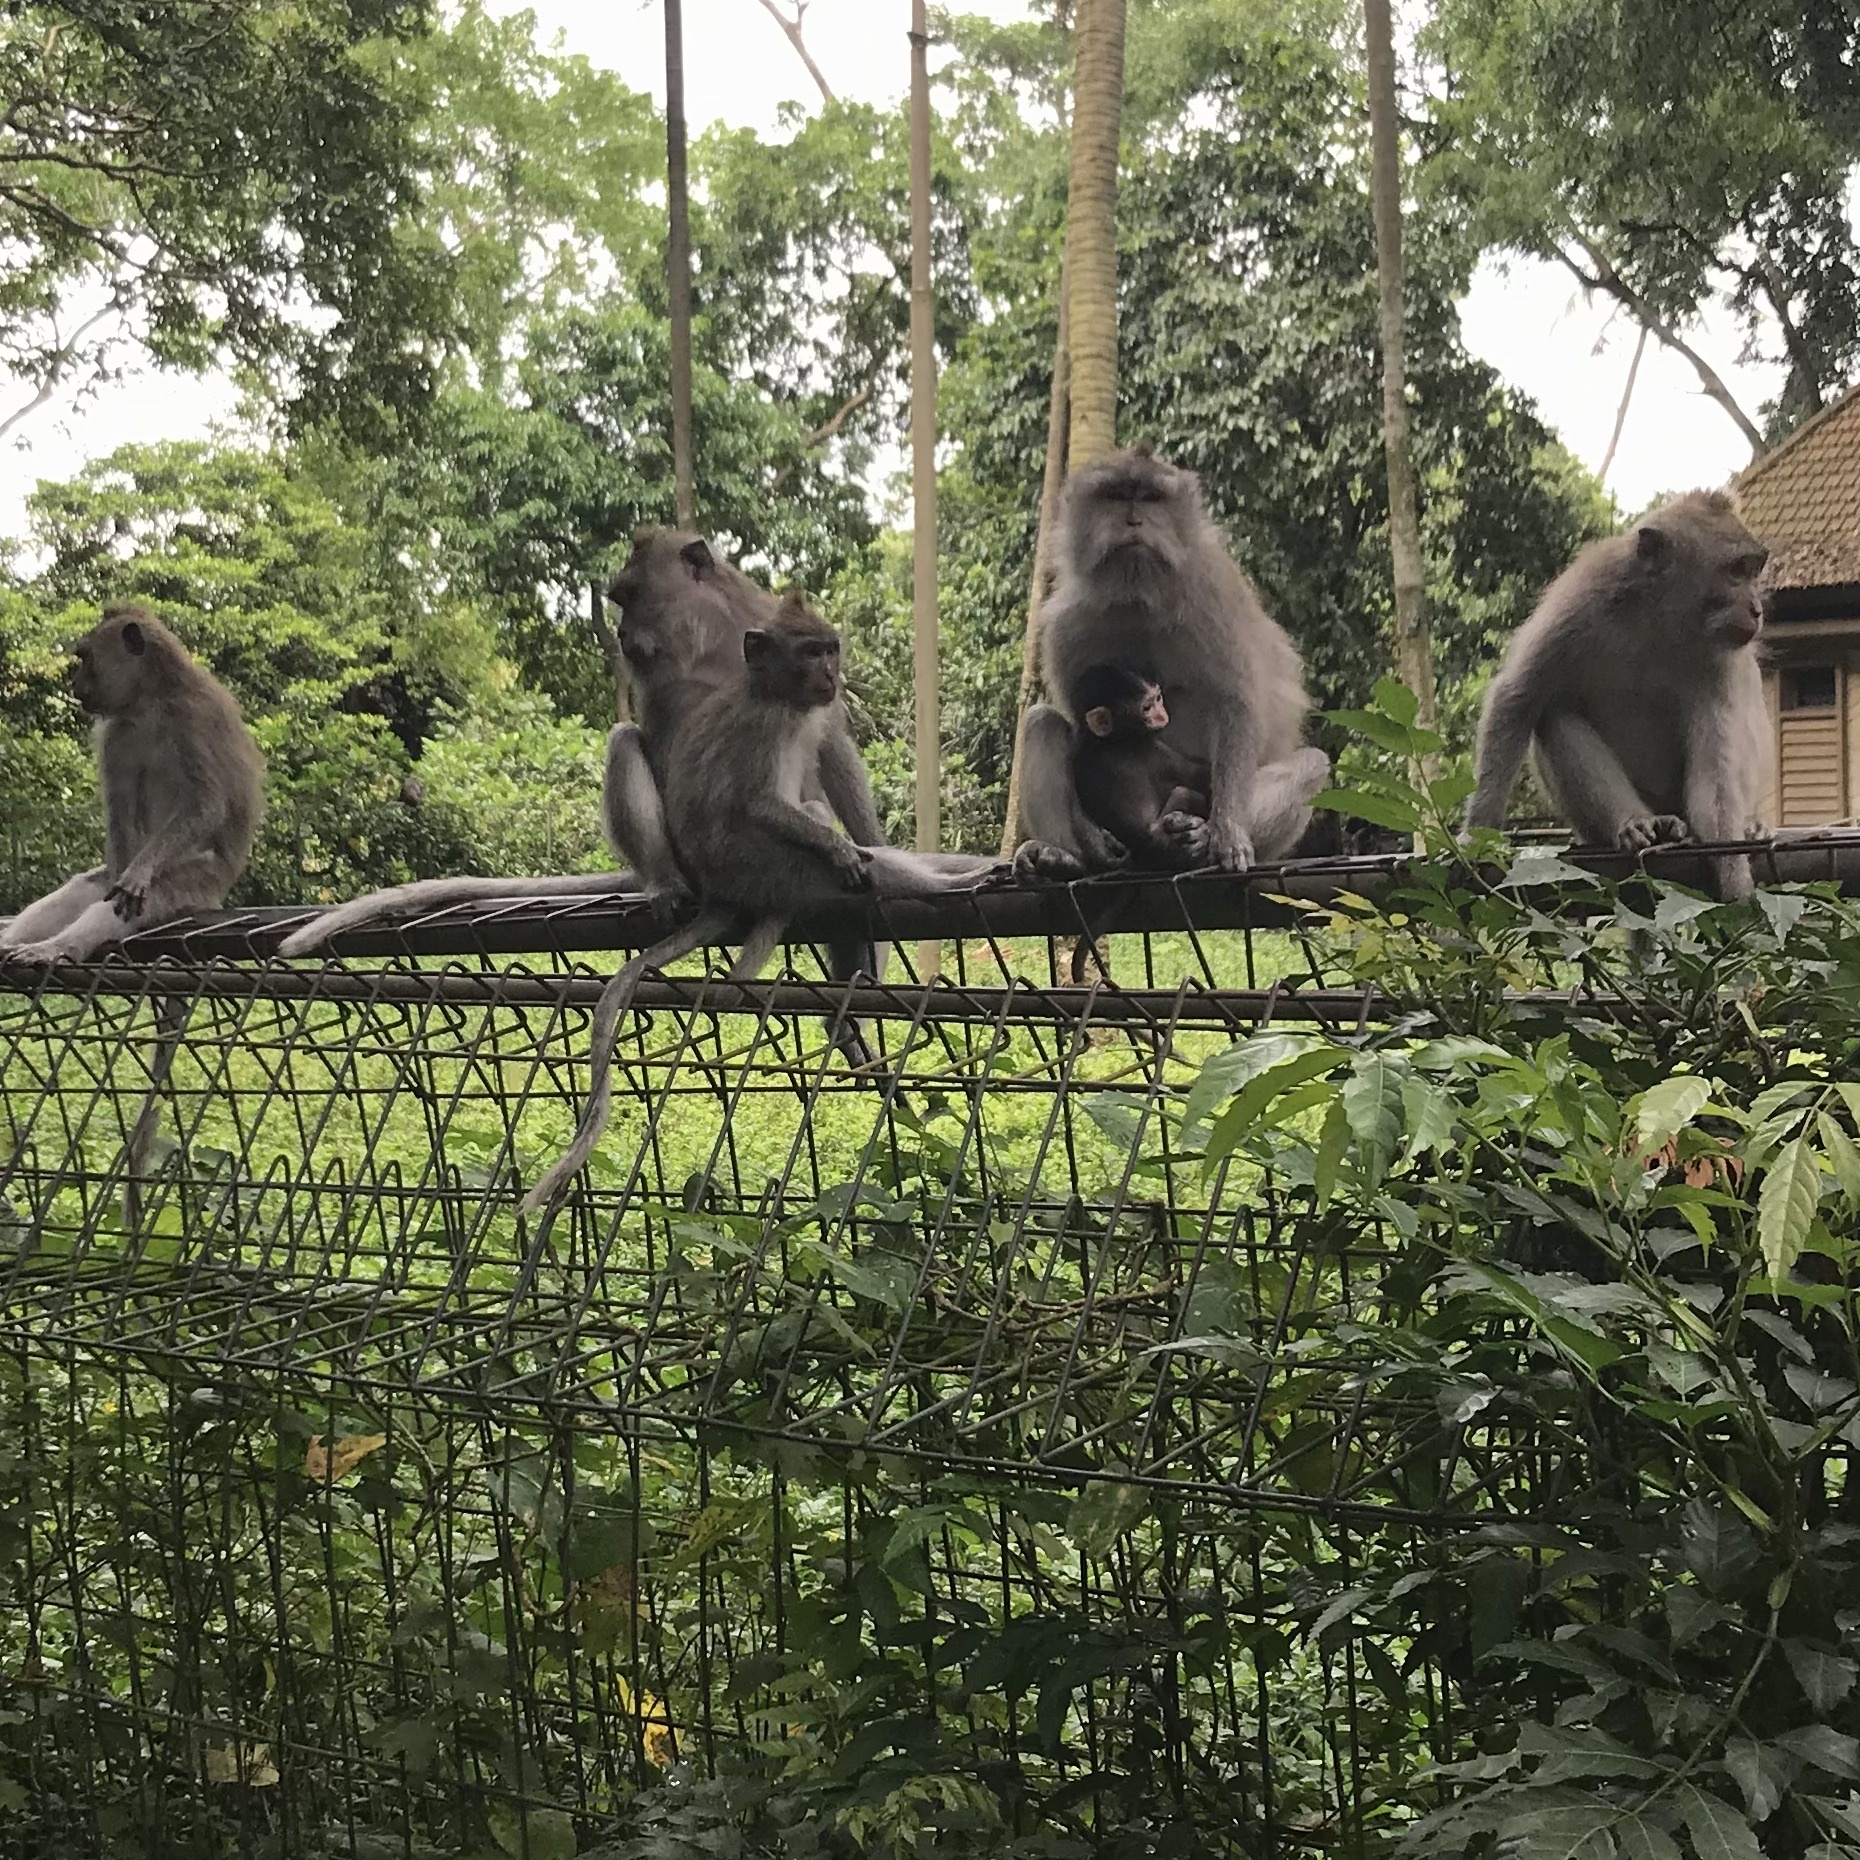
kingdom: Animalia
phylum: Chordata
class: Mammalia
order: Primates
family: Cercopithecidae
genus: Macaca
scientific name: Macaca fascicularis
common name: Crab-eating macaque
